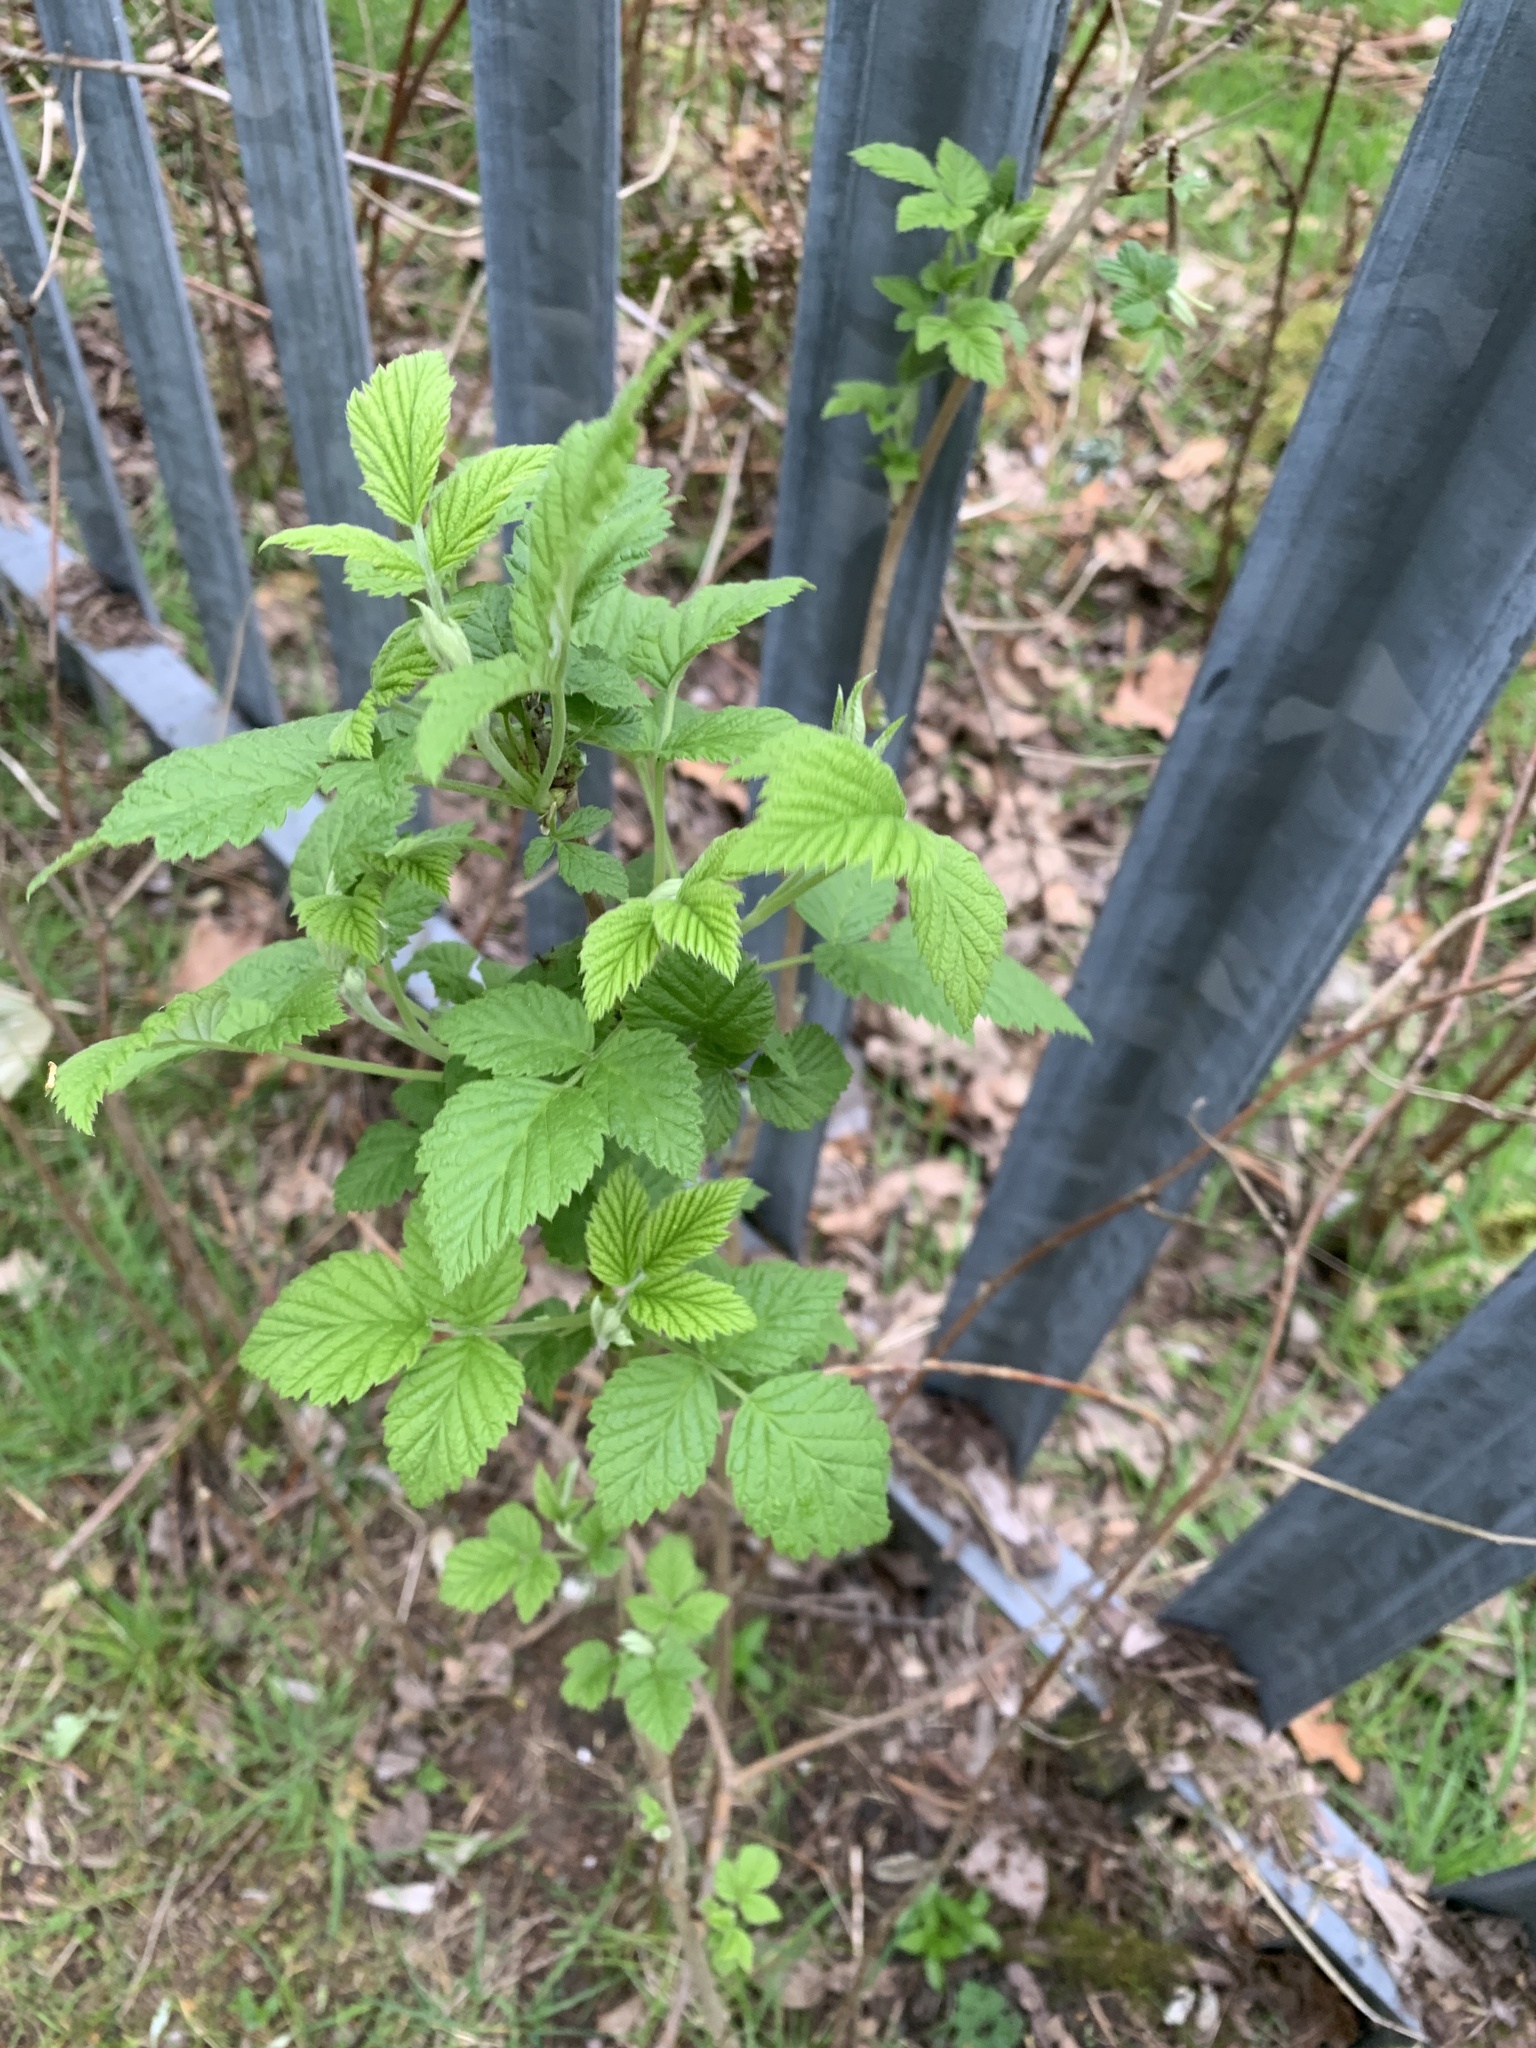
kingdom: Plantae
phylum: Tracheophyta
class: Magnoliopsida
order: Rosales
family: Rosaceae
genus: Rubus
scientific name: Rubus fruticosus
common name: Blackberry, bramble
